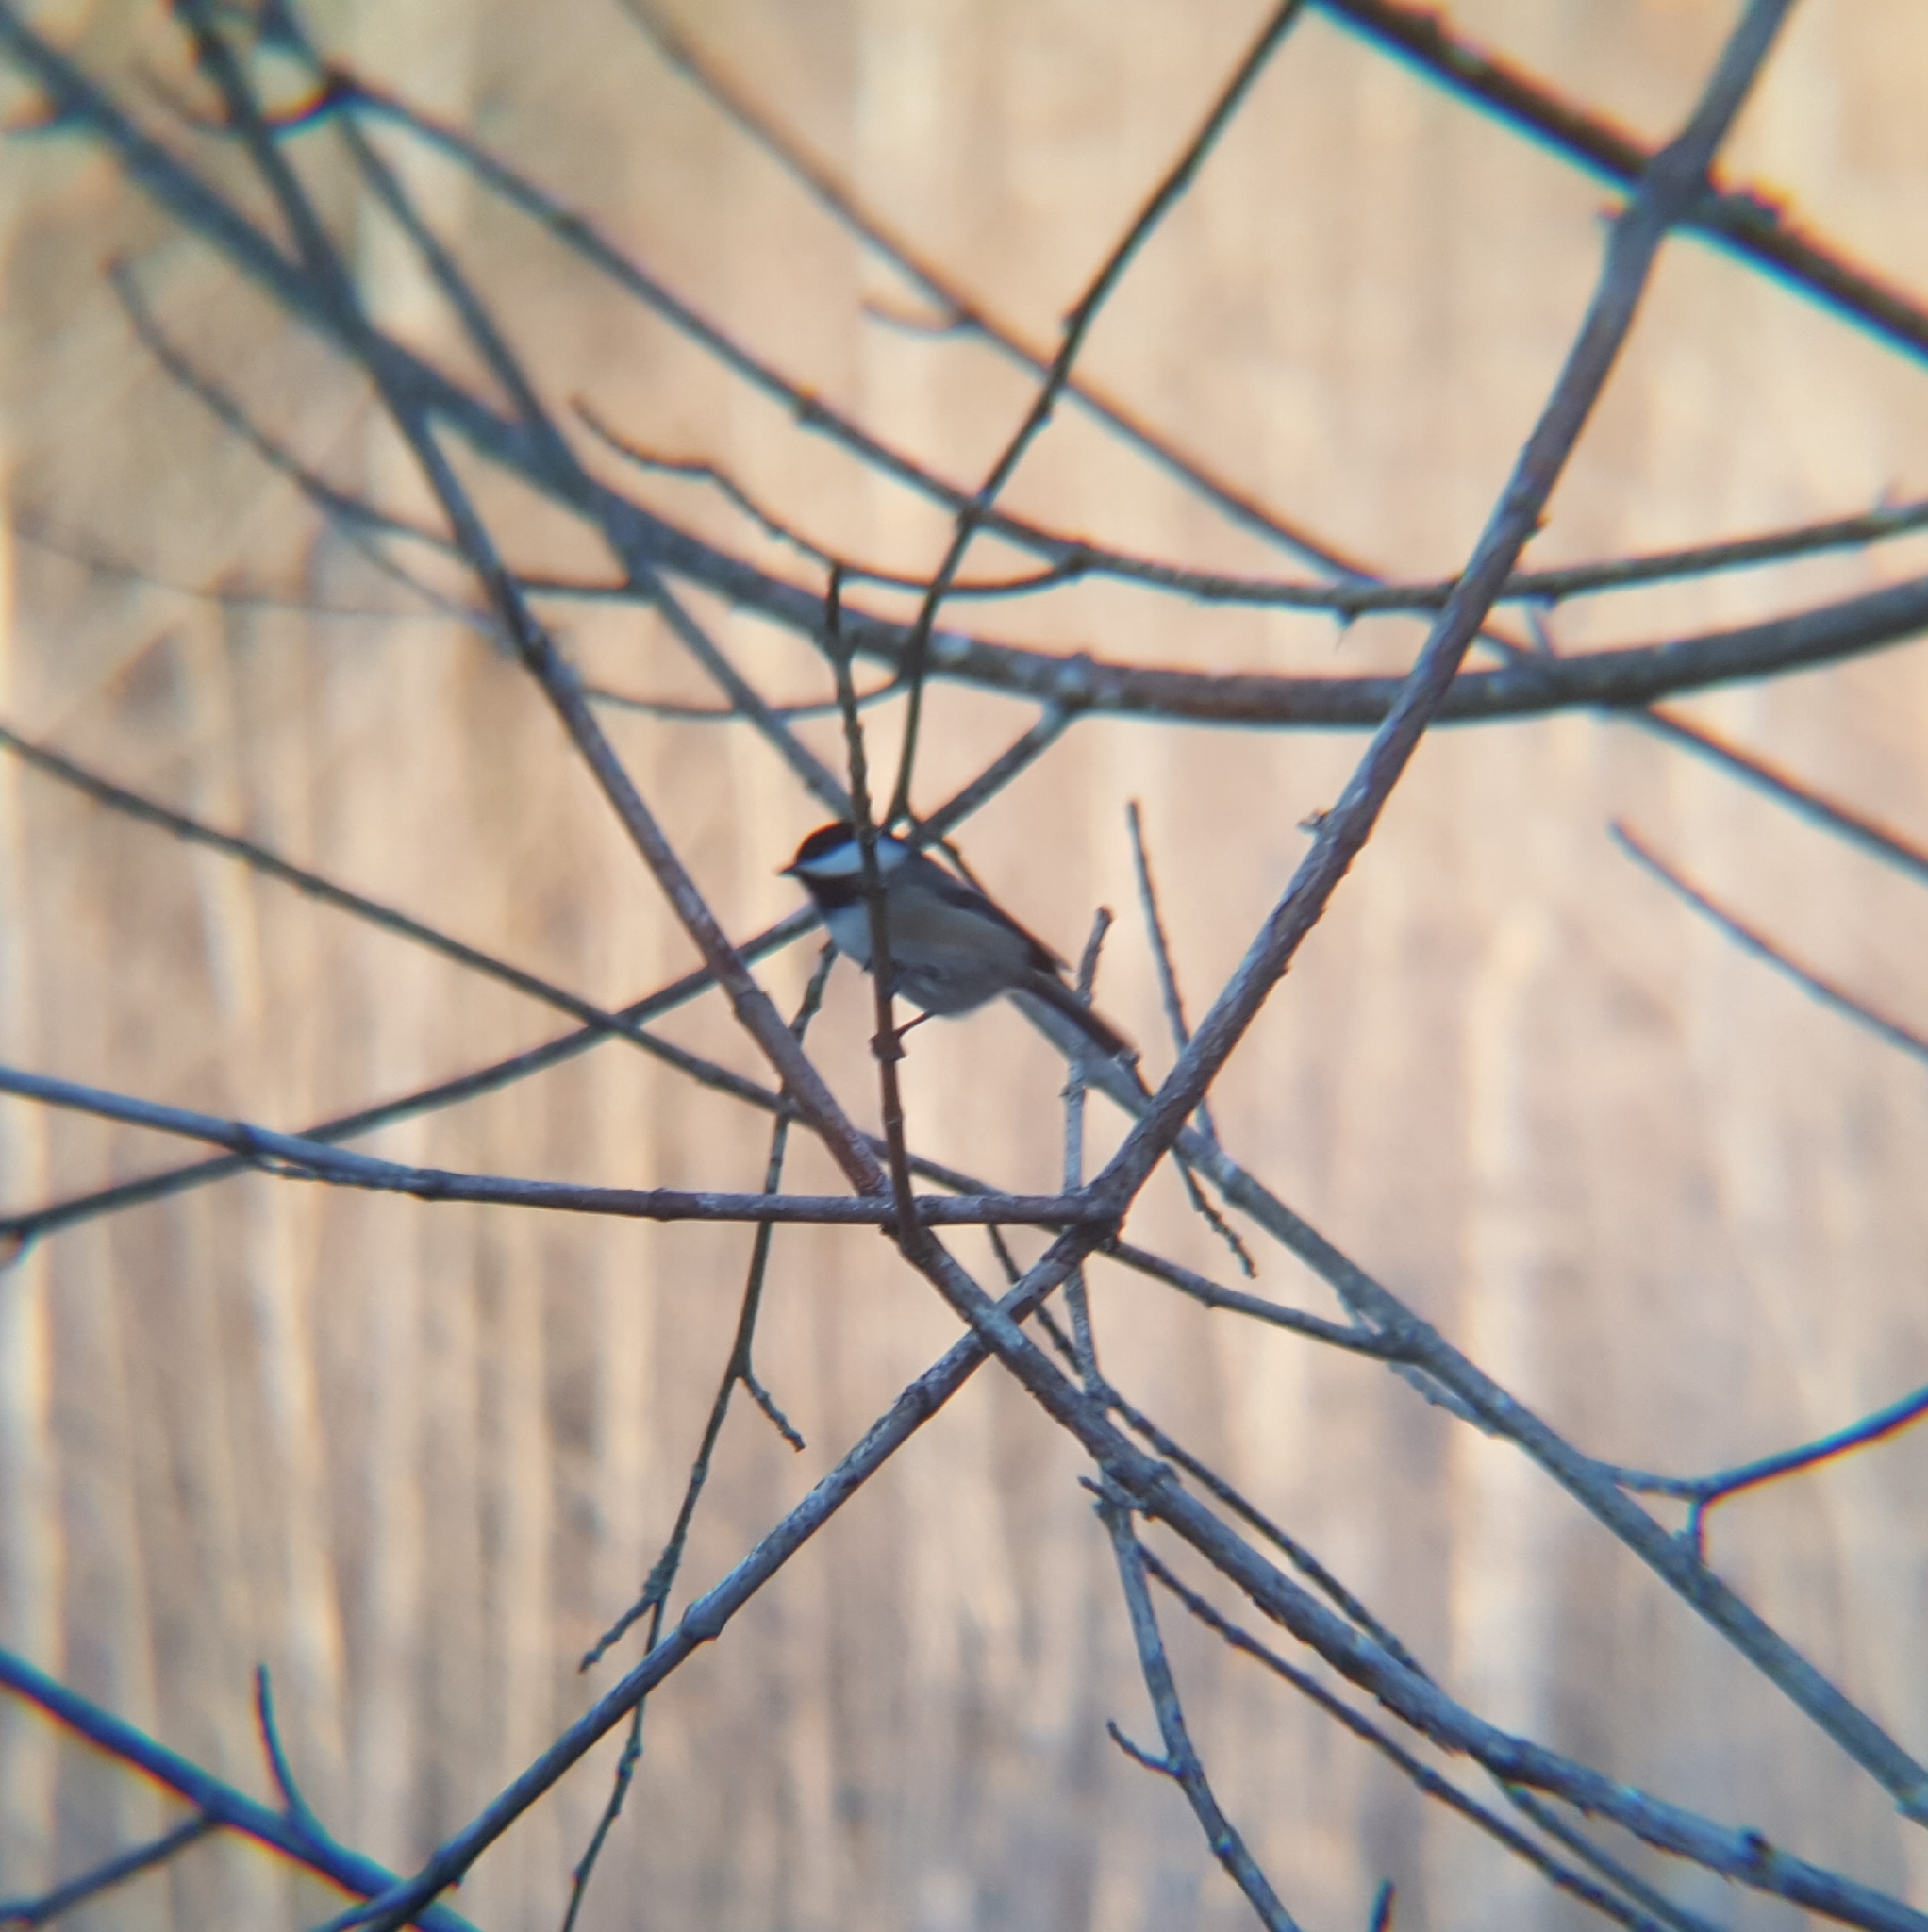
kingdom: Animalia
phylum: Chordata
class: Aves
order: Passeriformes
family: Paridae
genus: Poecile
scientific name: Poecile atricapillus
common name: Black-capped chickadee
